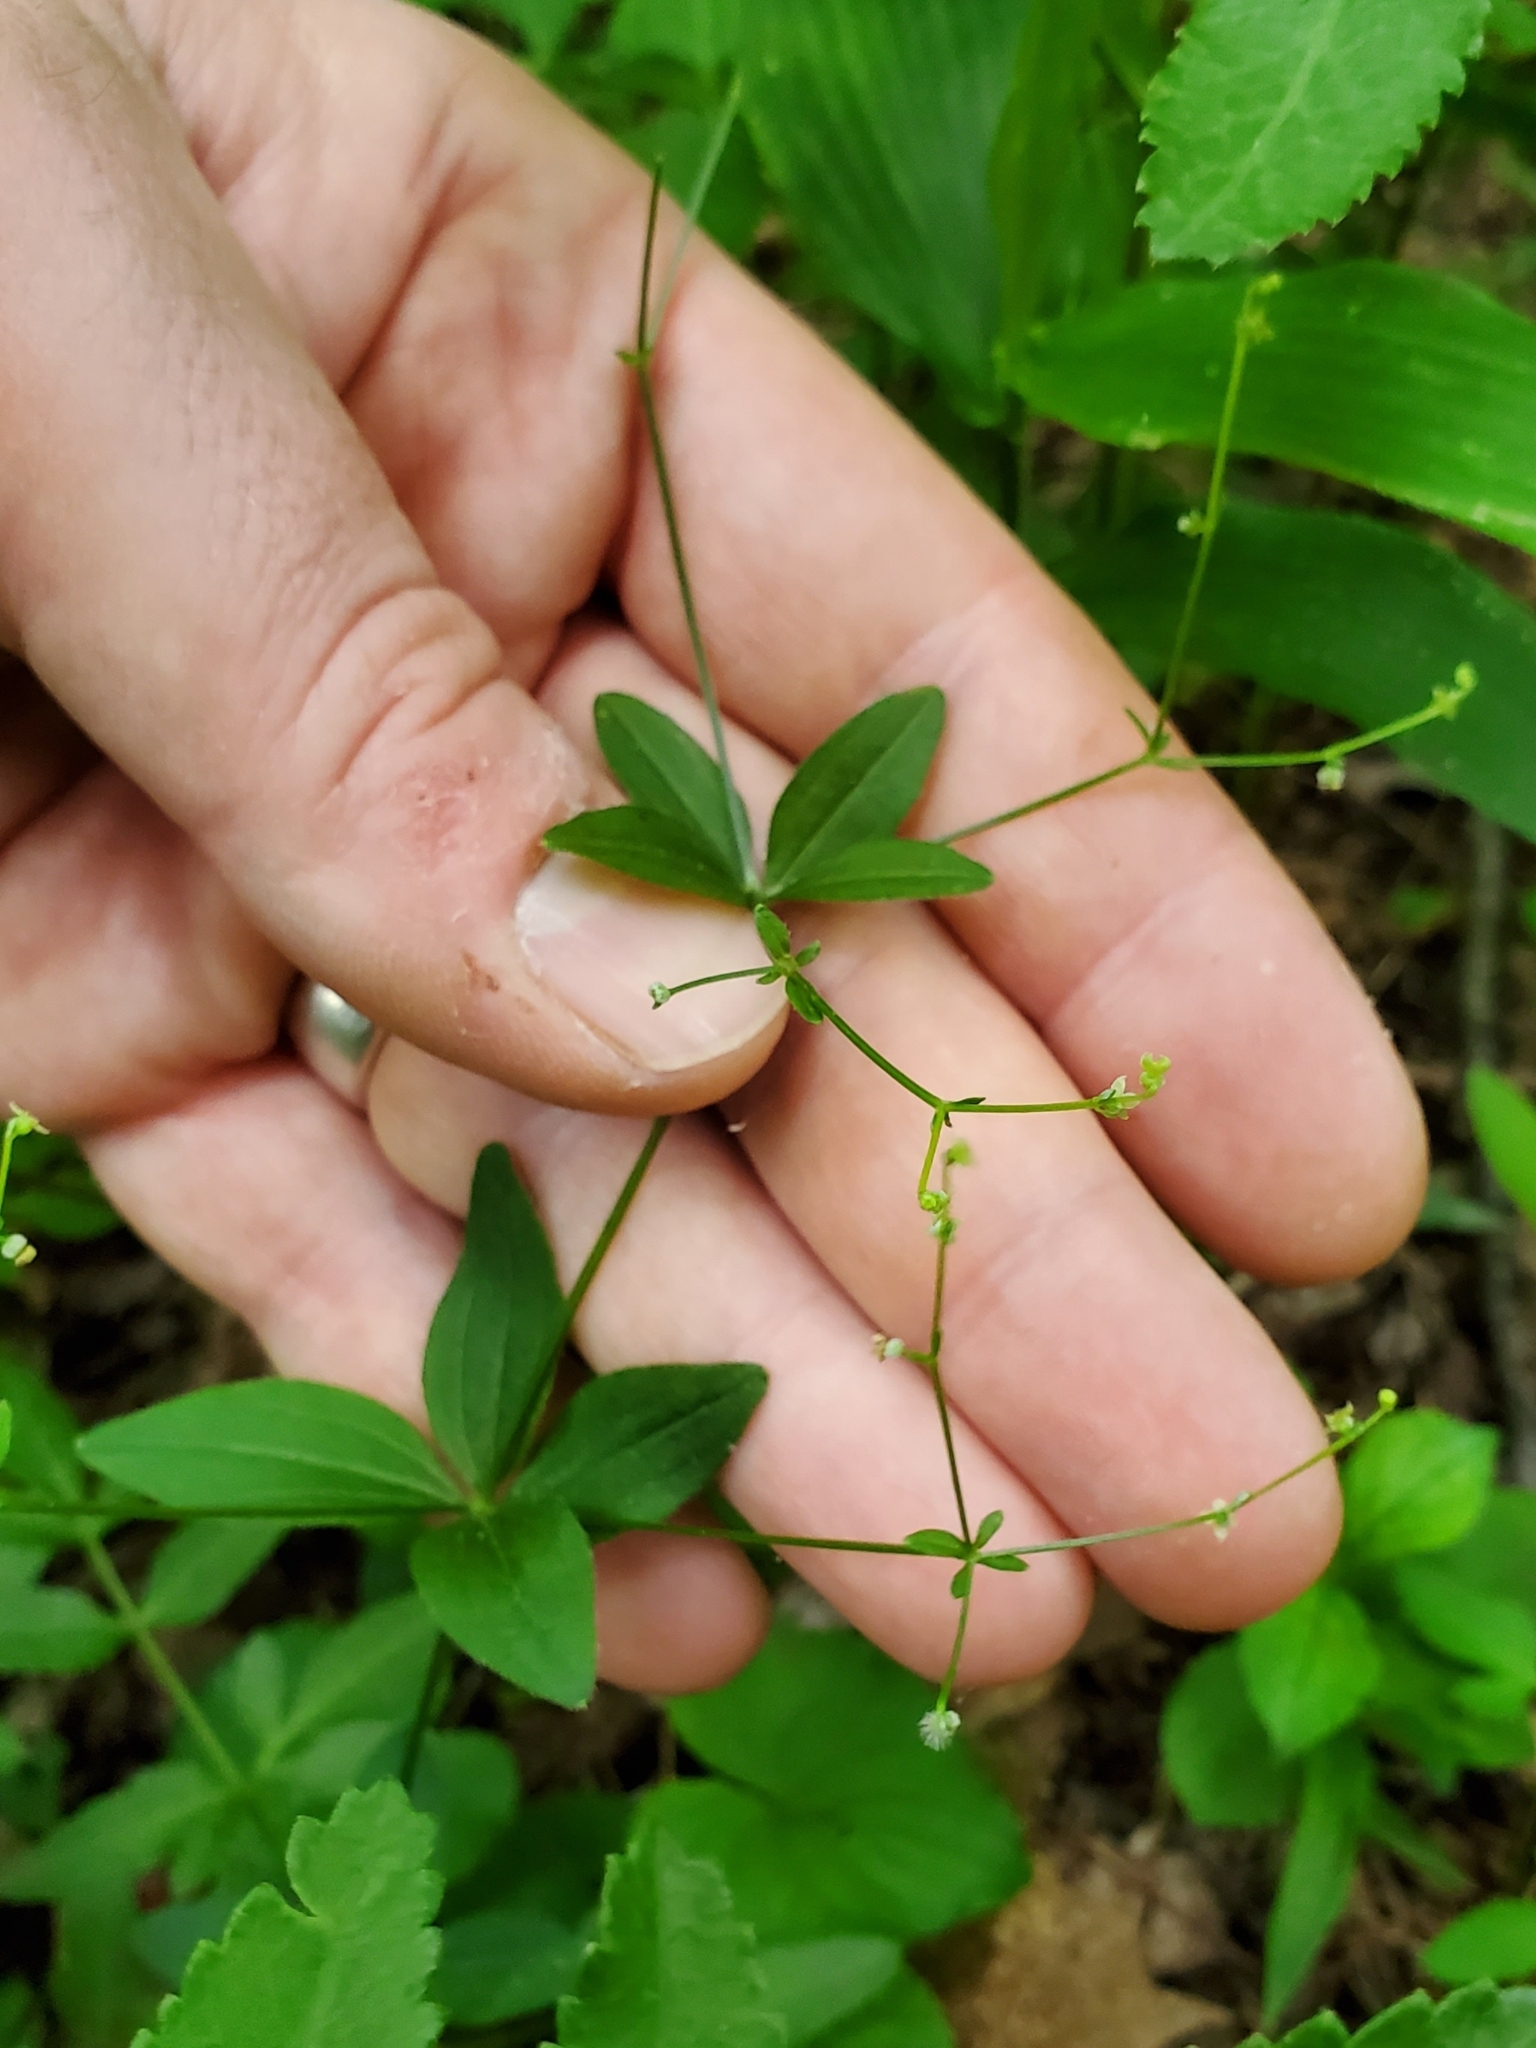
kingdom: Plantae
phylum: Tracheophyta
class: Magnoliopsida
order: Gentianales
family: Rubiaceae
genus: Galium
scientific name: Galium circaezans
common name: Forest bedstraw
